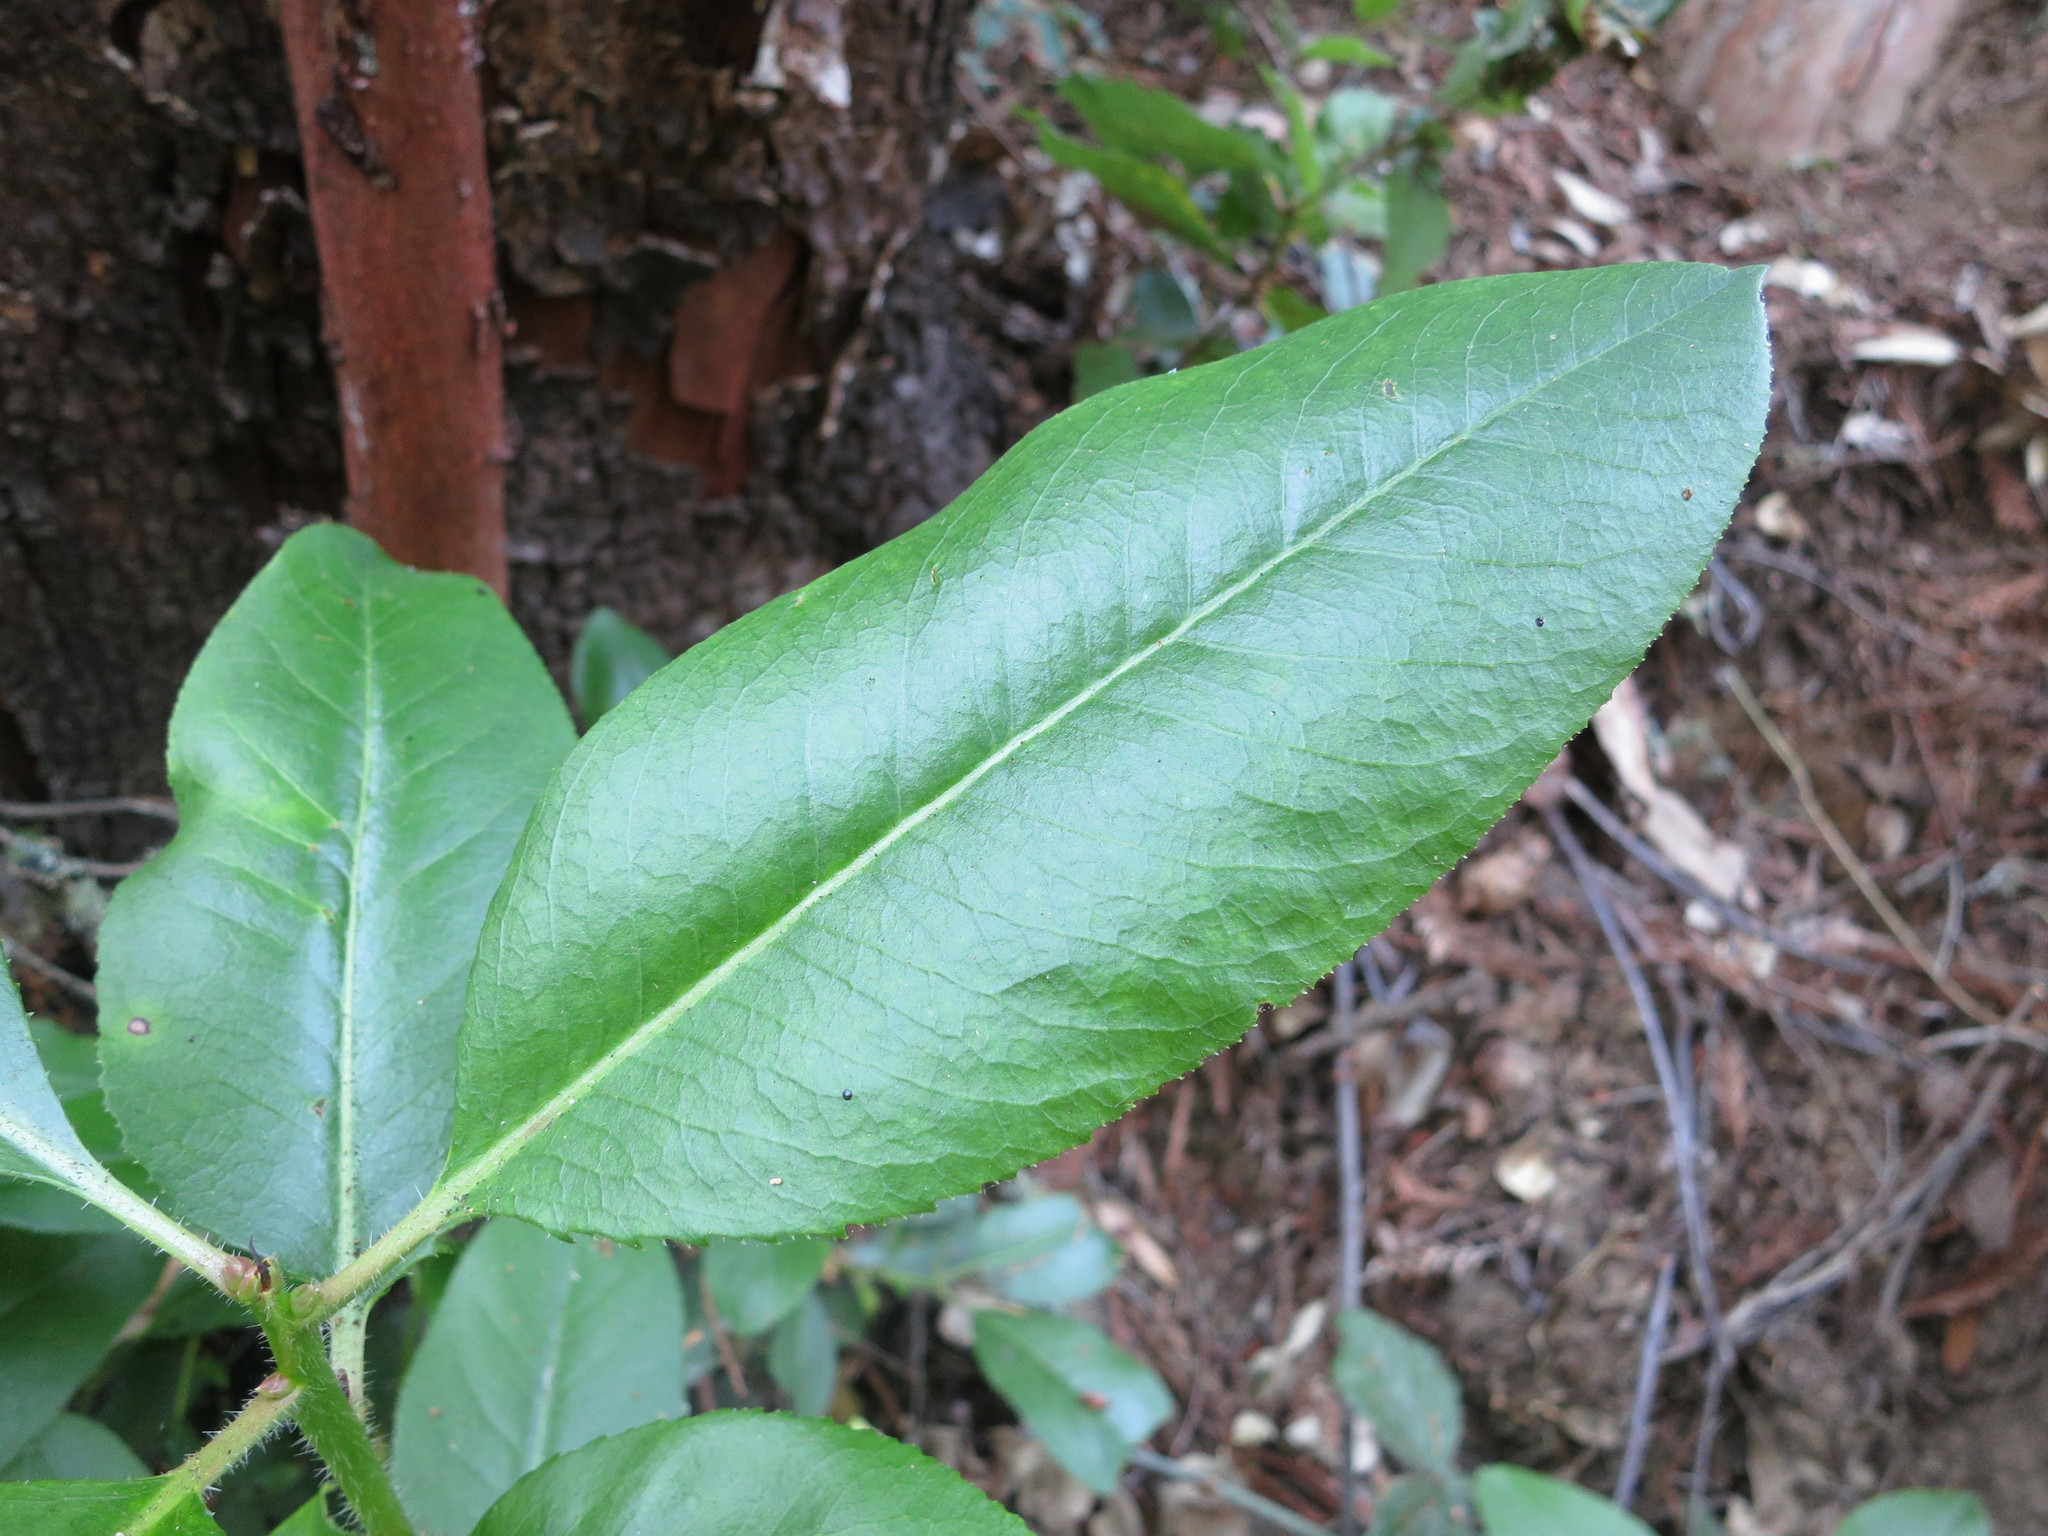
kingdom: Plantae
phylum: Tracheophyta
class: Magnoliopsida
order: Ericales
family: Ericaceae
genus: Arbutus
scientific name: Arbutus menziesii
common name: Pacific madrone
